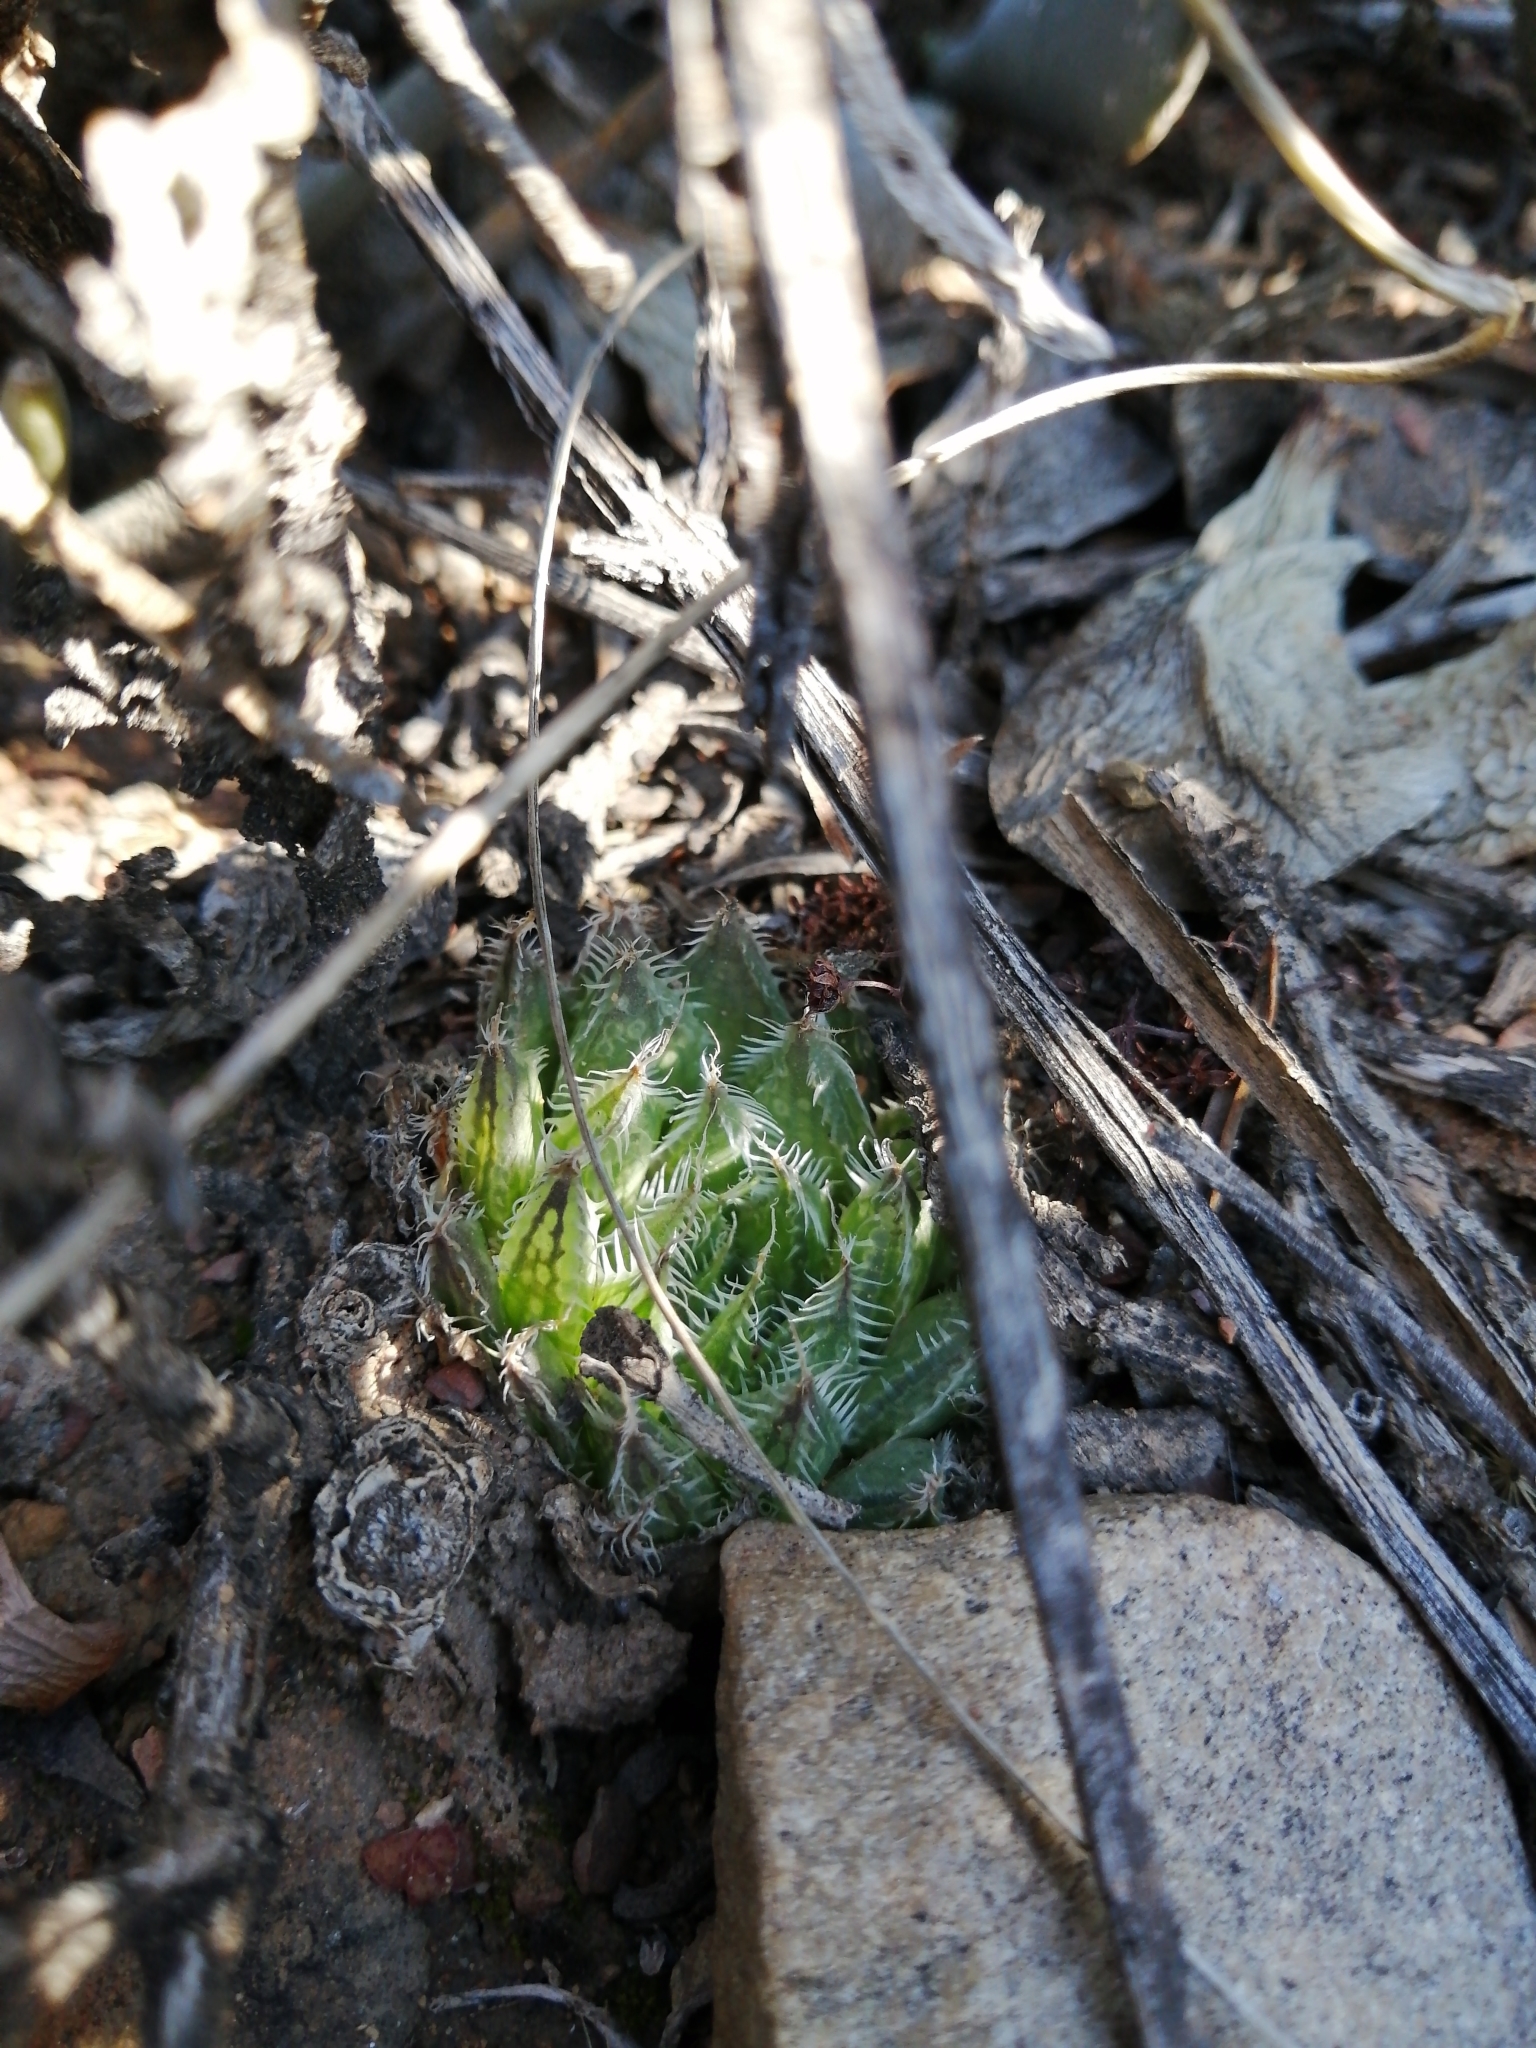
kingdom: Plantae
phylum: Tracheophyta
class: Liliopsida
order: Asparagales
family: Asphodelaceae
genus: Haworthia
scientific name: Haworthia arachnoidea
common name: Cobweb-aloe
